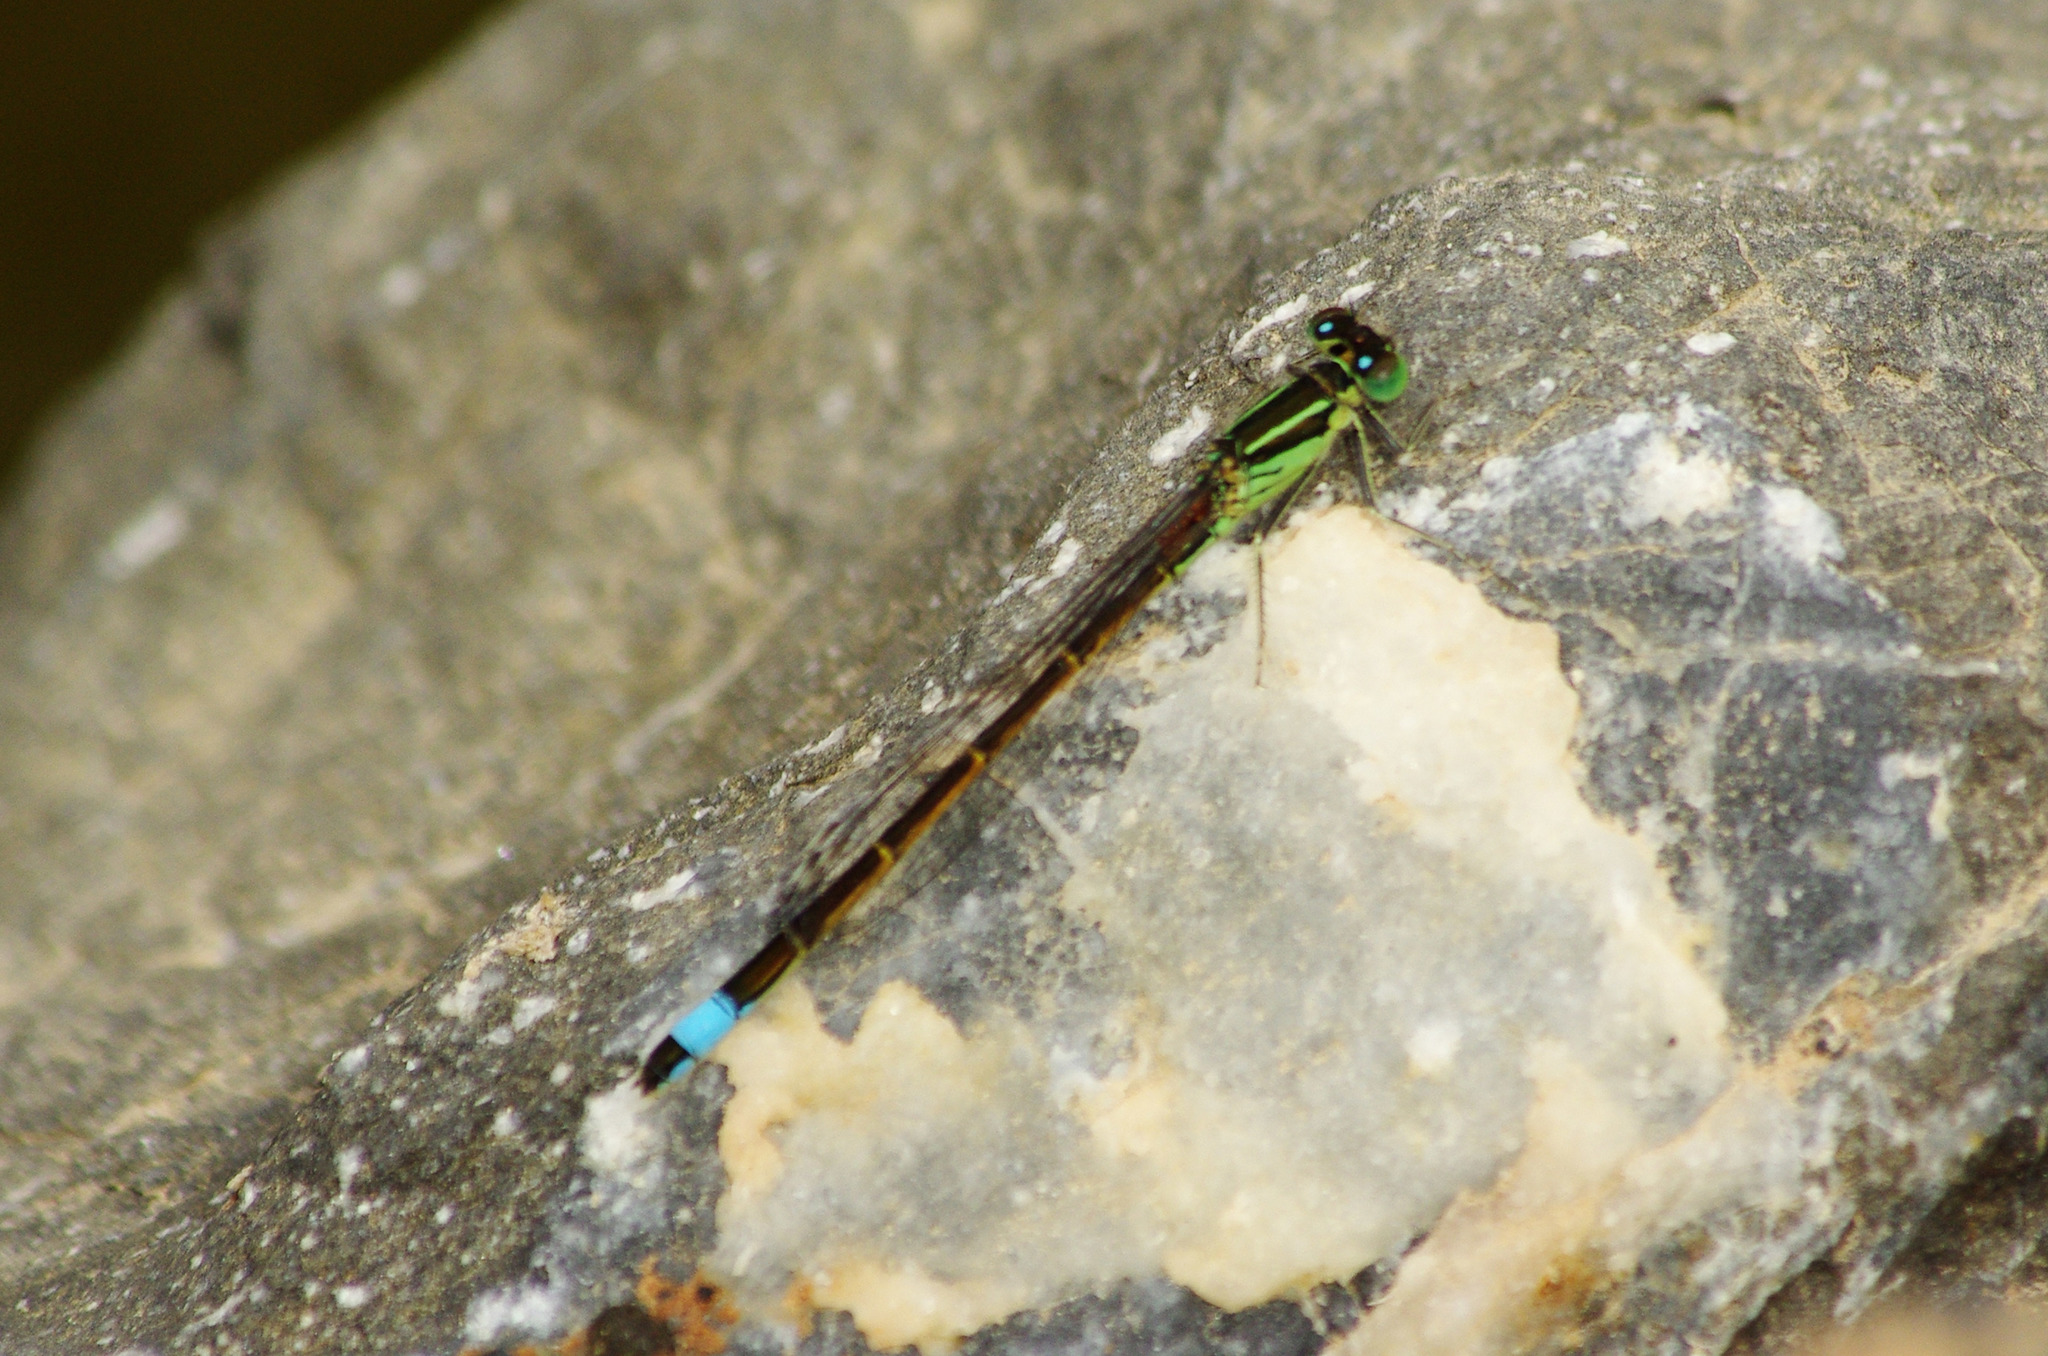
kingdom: Animalia
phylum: Arthropoda
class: Insecta
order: Odonata
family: Coenagrionidae
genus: Ischnura
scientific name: Ischnura saharensis
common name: Sahara bluetail
